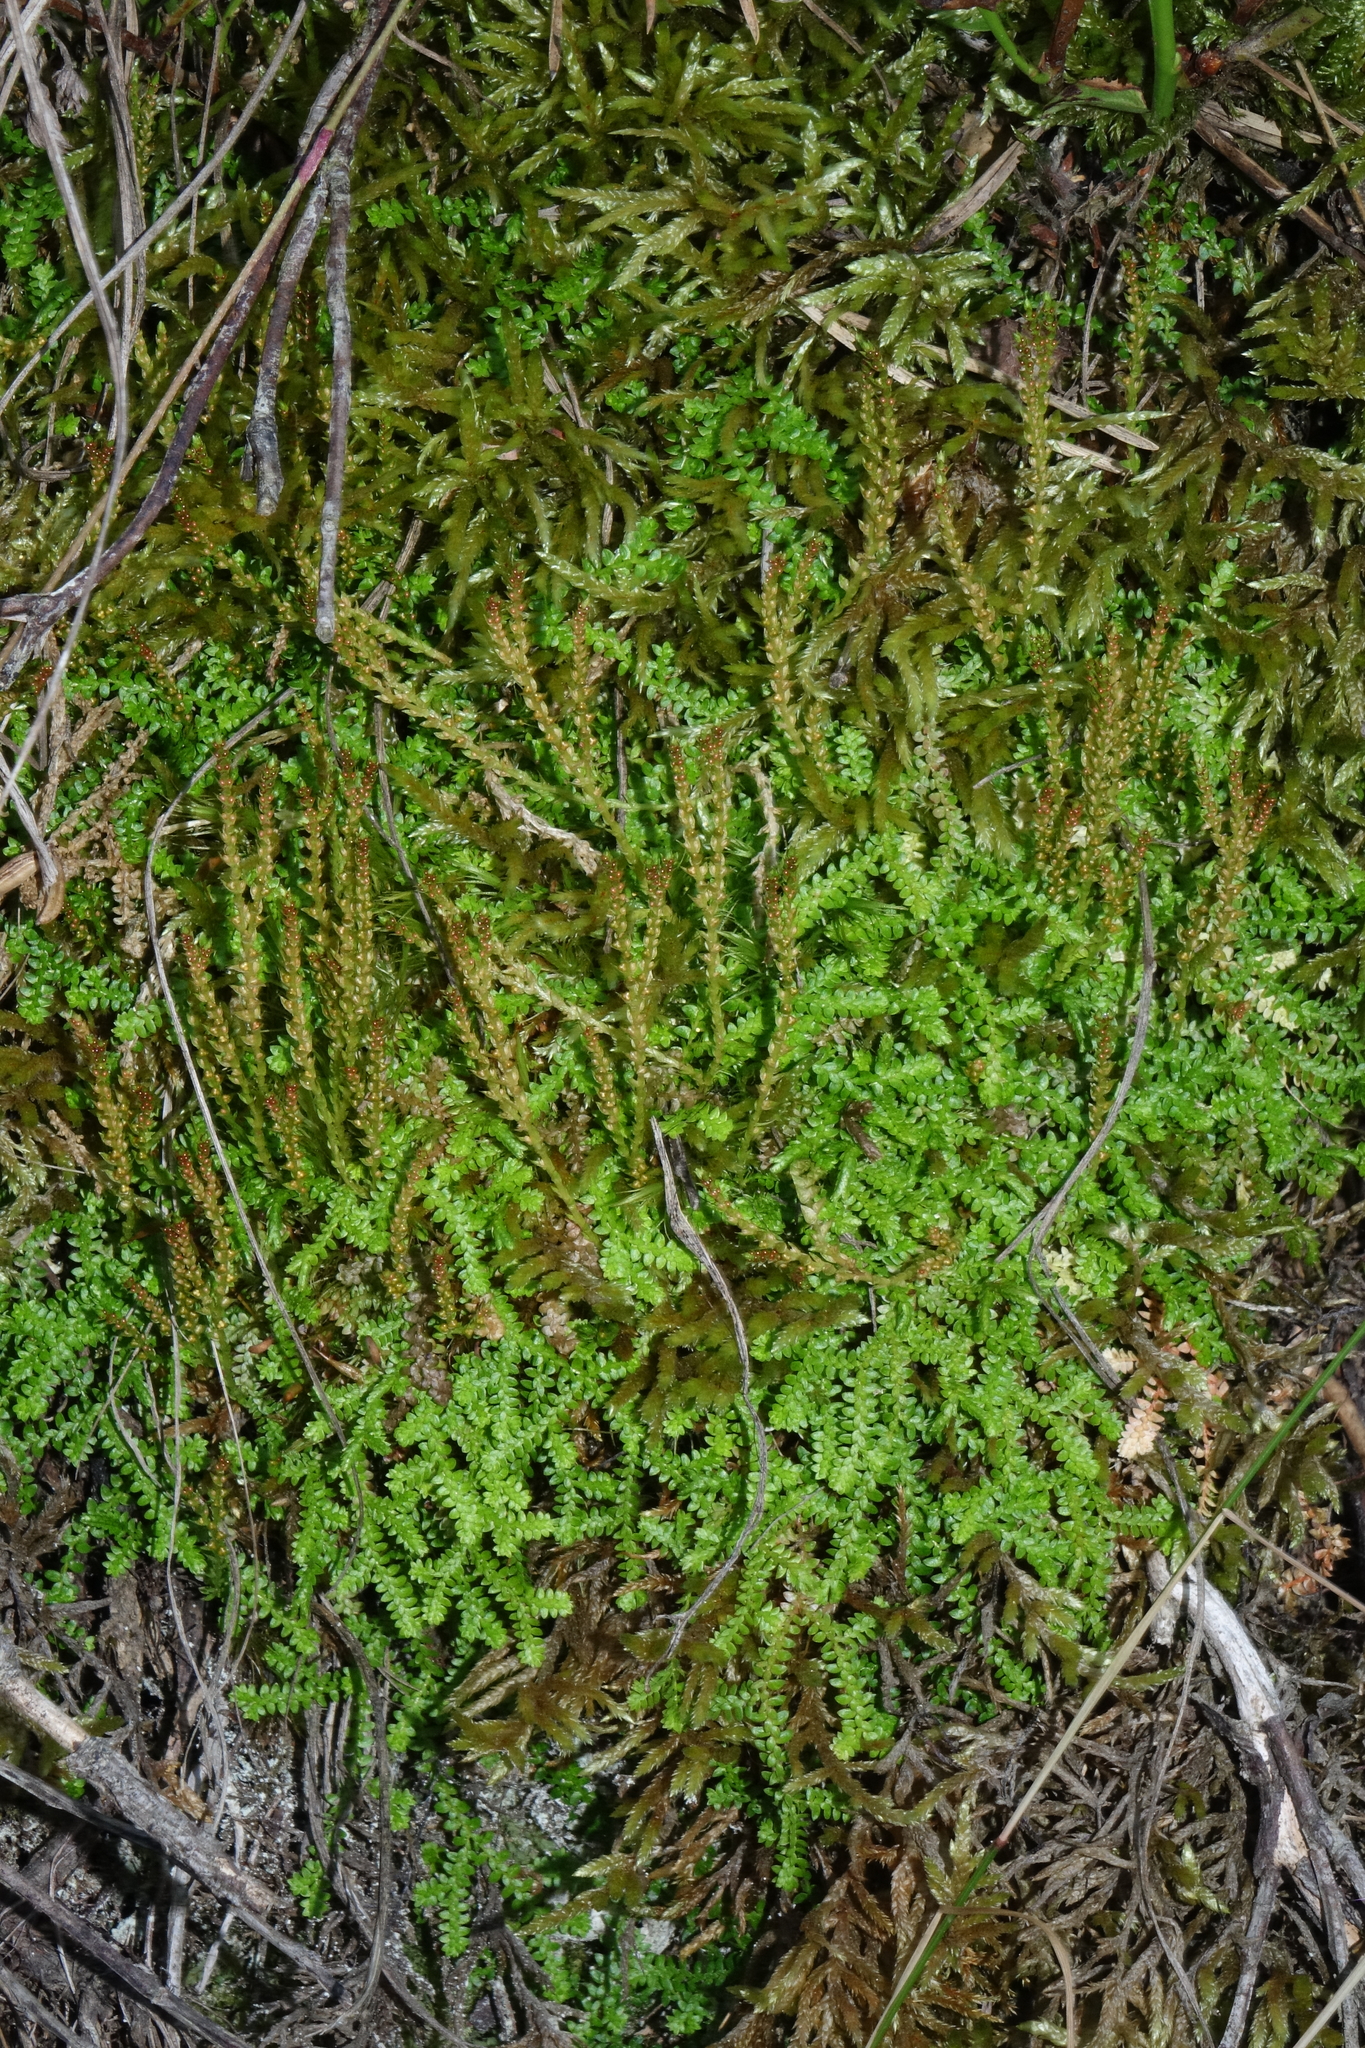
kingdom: Plantae
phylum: Tracheophyta
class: Lycopodiopsida
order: Selaginellales
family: Selaginellaceae
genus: Selaginella
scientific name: Selaginella helvetica
